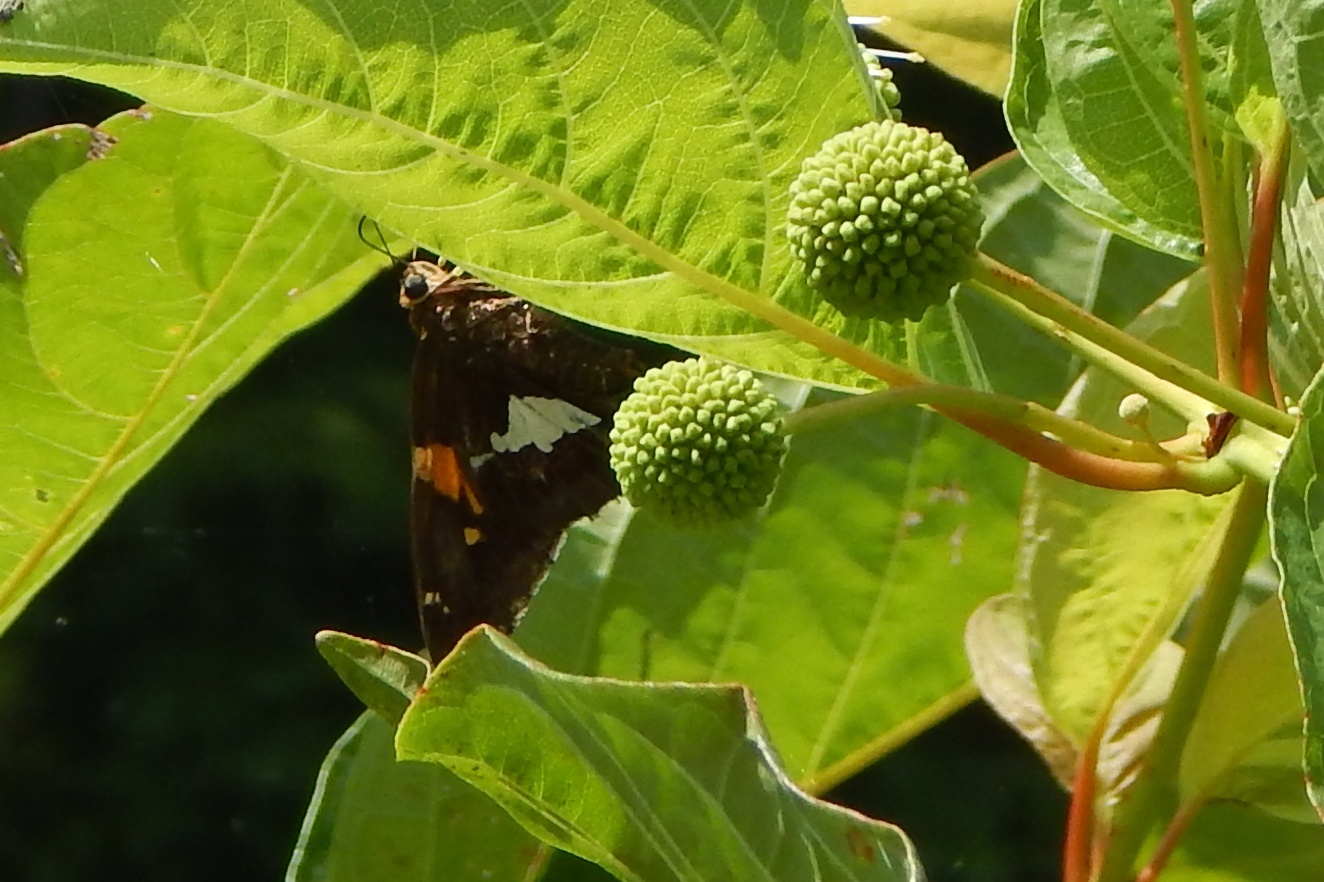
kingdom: Animalia
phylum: Arthropoda
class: Insecta
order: Lepidoptera
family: Hesperiidae
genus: Epargyreus
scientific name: Epargyreus clarus
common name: Silver-spotted skipper
